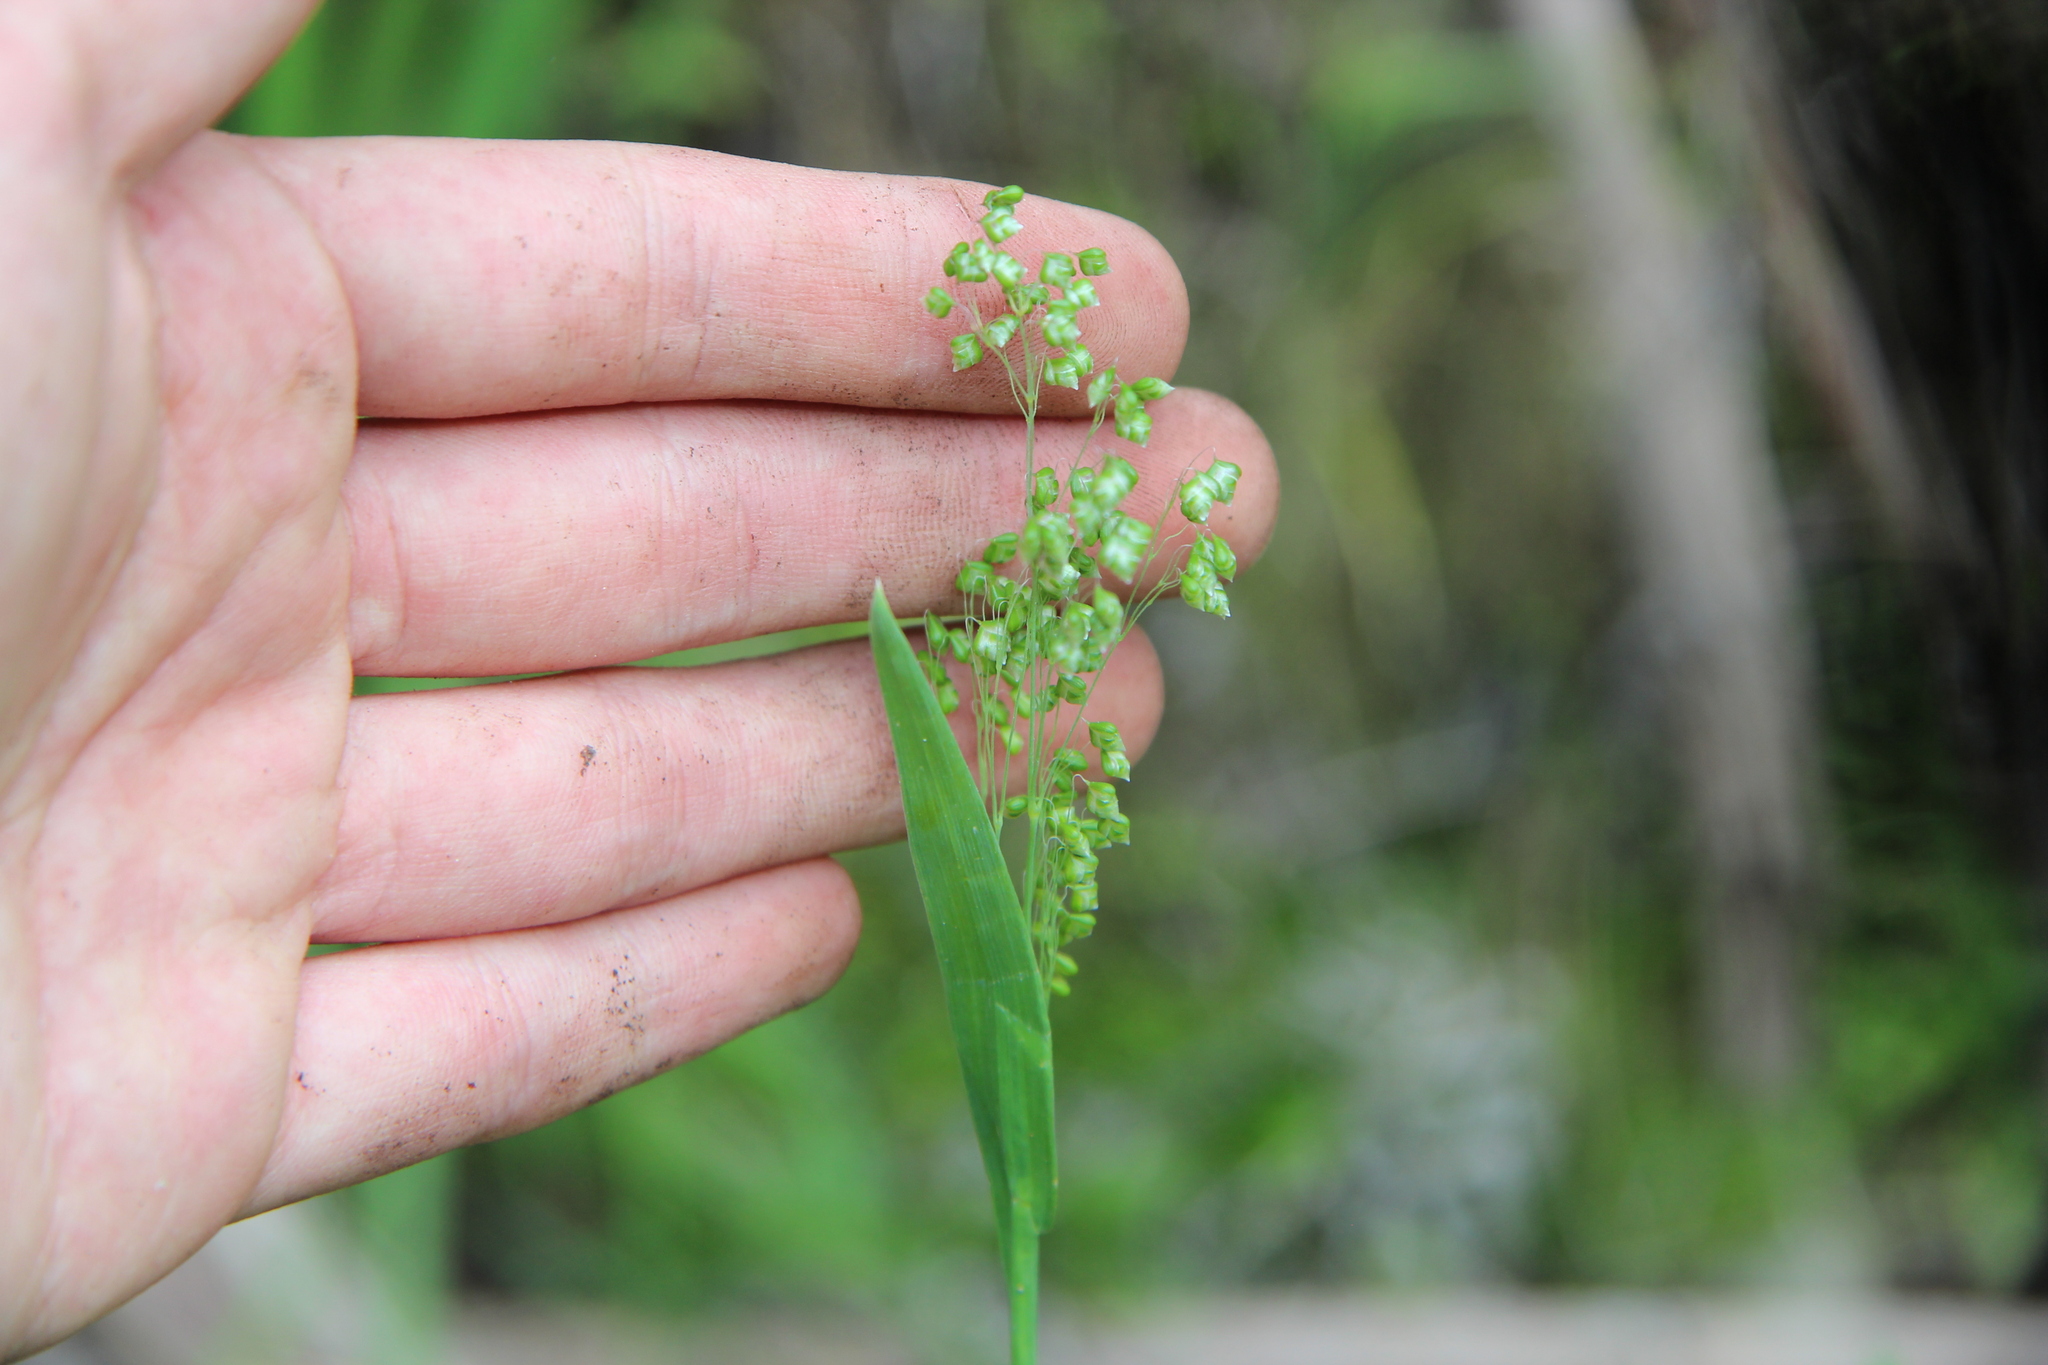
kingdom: Plantae
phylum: Tracheophyta
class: Liliopsida
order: Poales
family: Poaceae
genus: Briza
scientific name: Briza minor
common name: Lesser quaking-grass
